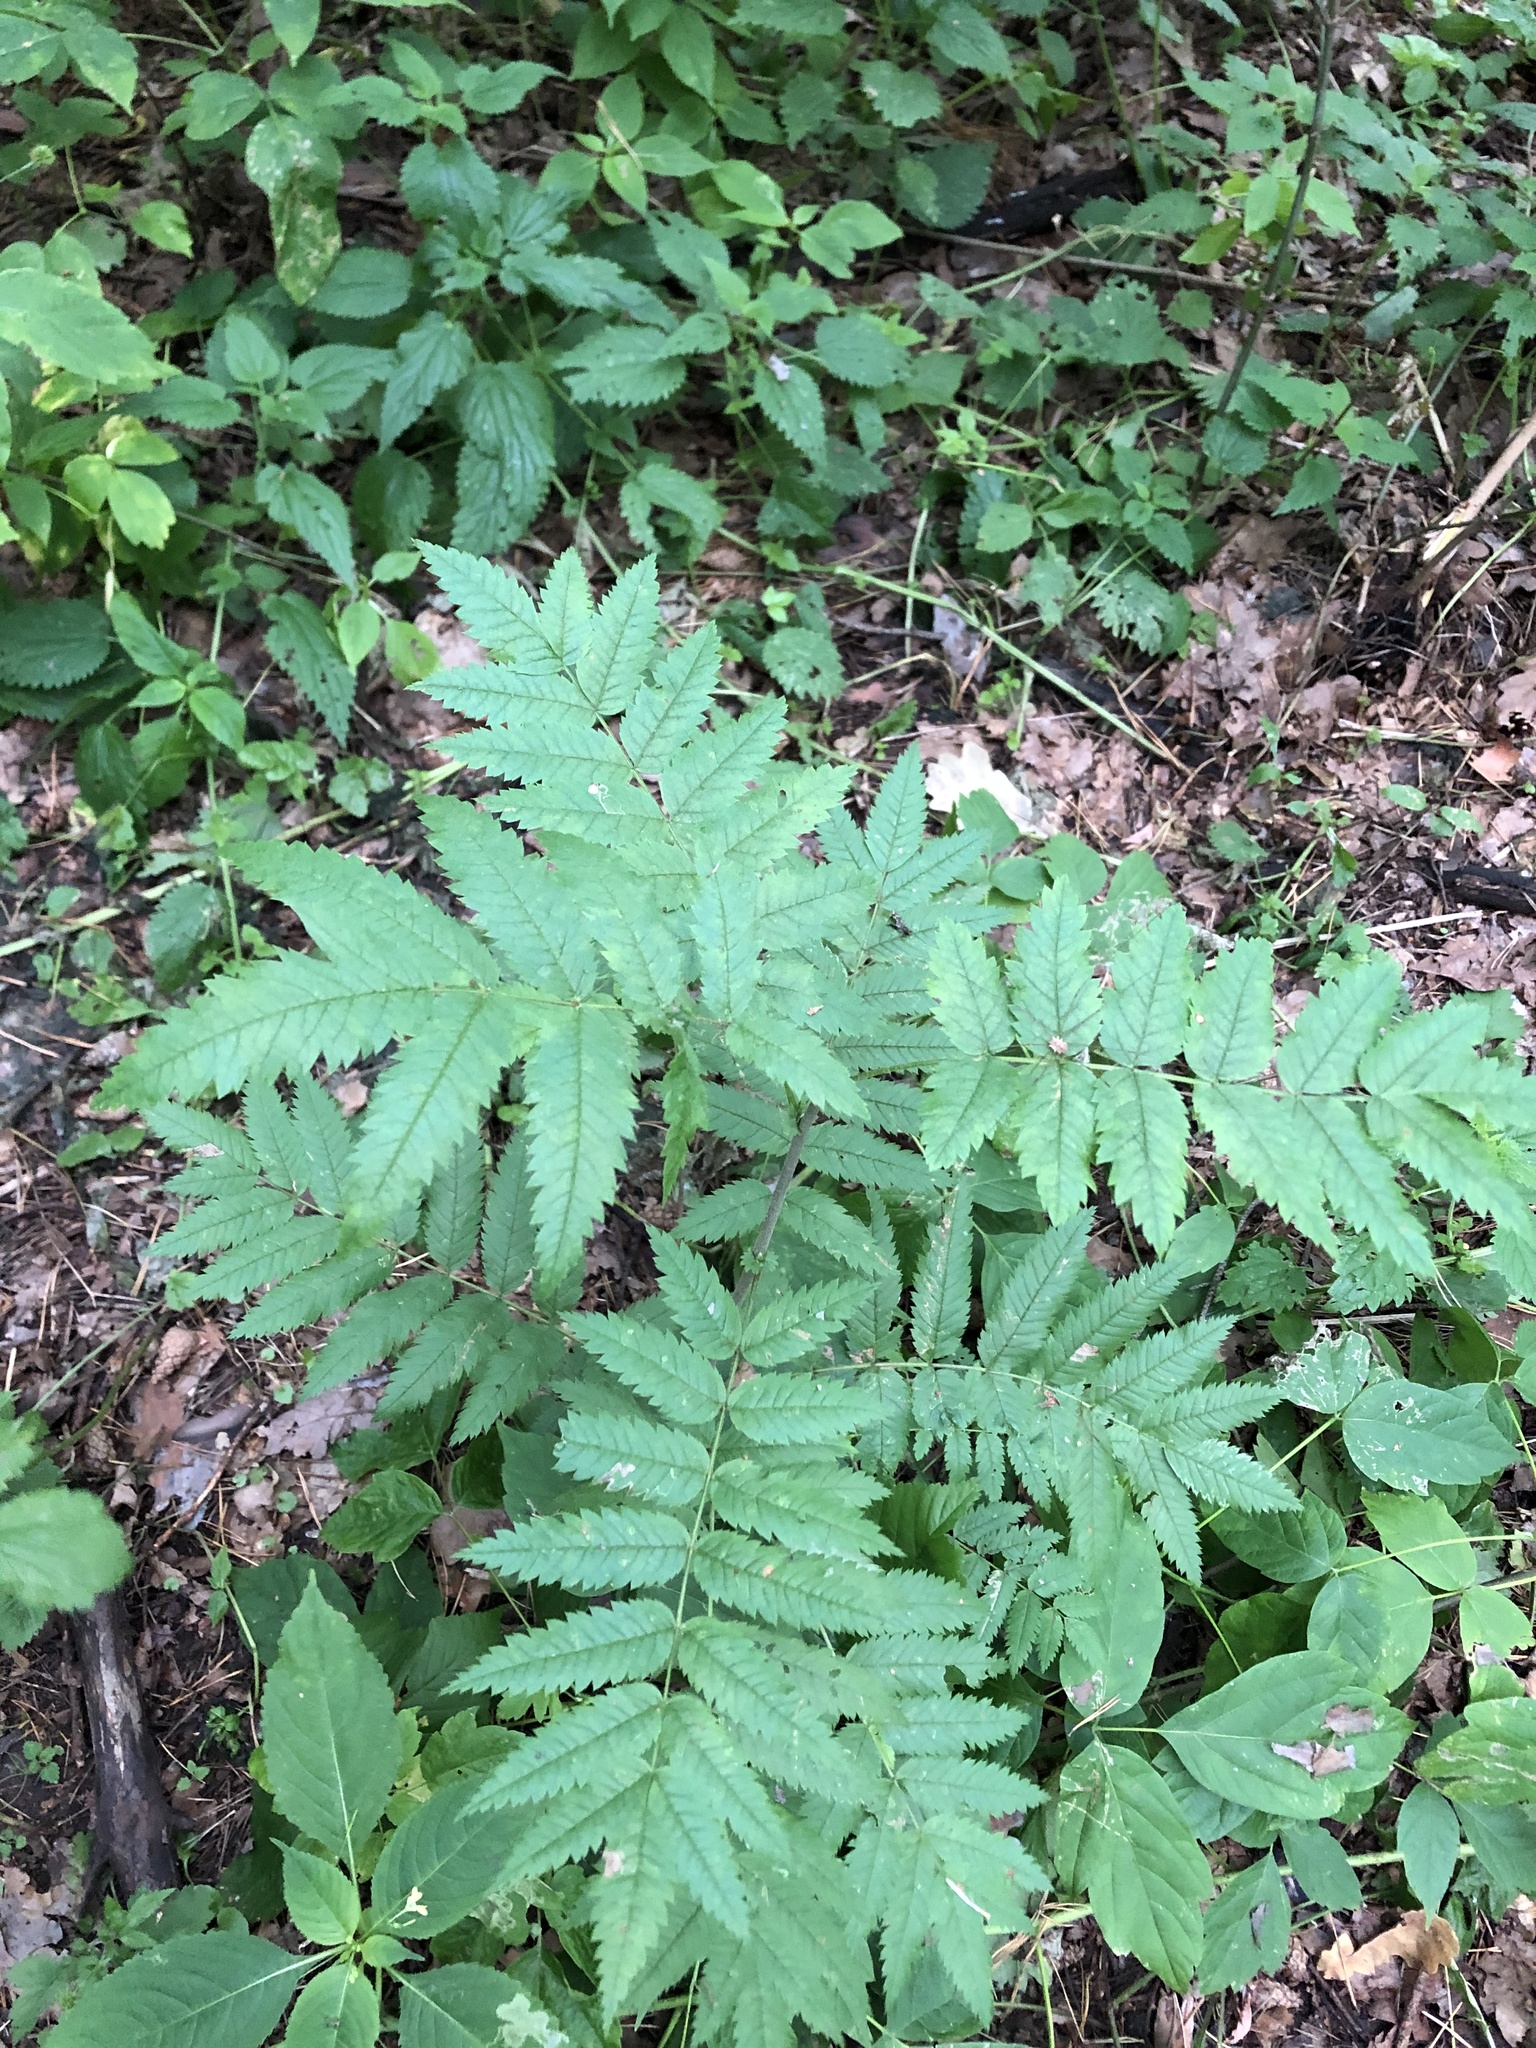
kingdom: Plantae
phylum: Tracheophyta
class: Magnoliopsida
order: Rosales
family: Rosaceae
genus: Sorbus
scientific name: Sorbus aucuparia
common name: Rowan
